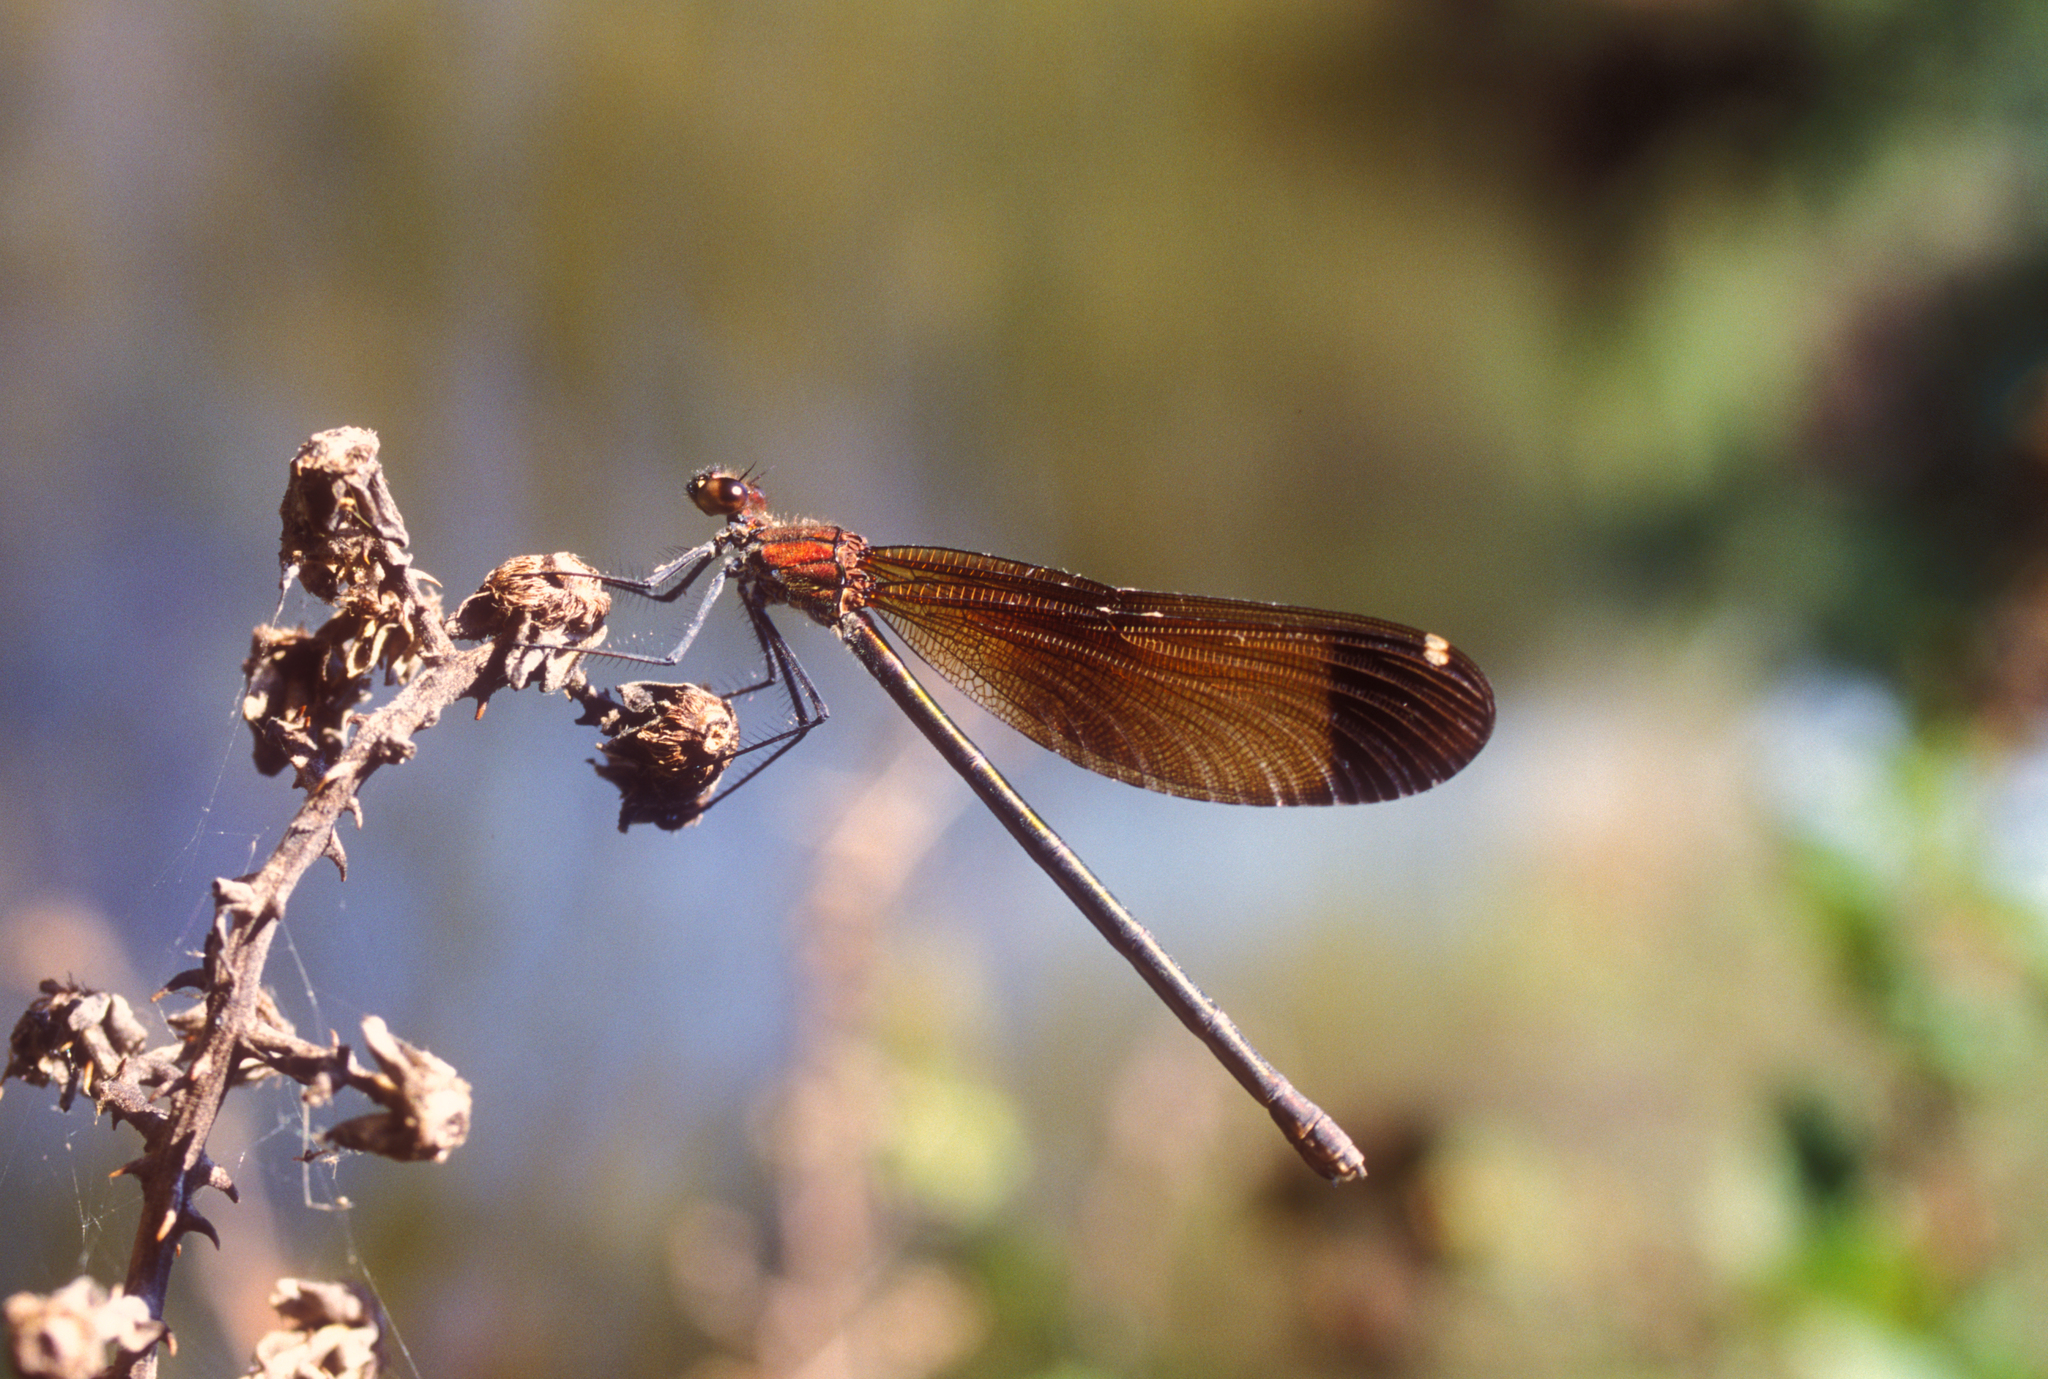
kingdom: Animalia
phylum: Arthropoda
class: Insecta
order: Odonata
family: Calopterygidae
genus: Calopteryx
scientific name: Calopteryx haemorrhoidalis
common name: Copper demoiselle
